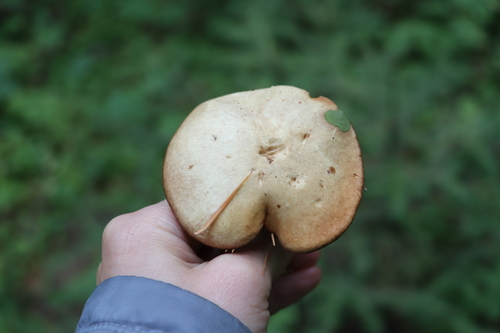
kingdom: Fungi
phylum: Basidiomycota
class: Agaricomycetes
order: Boletales
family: Suillaceae
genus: Suillus
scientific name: Suillus placidus
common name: Slippery white bolete
